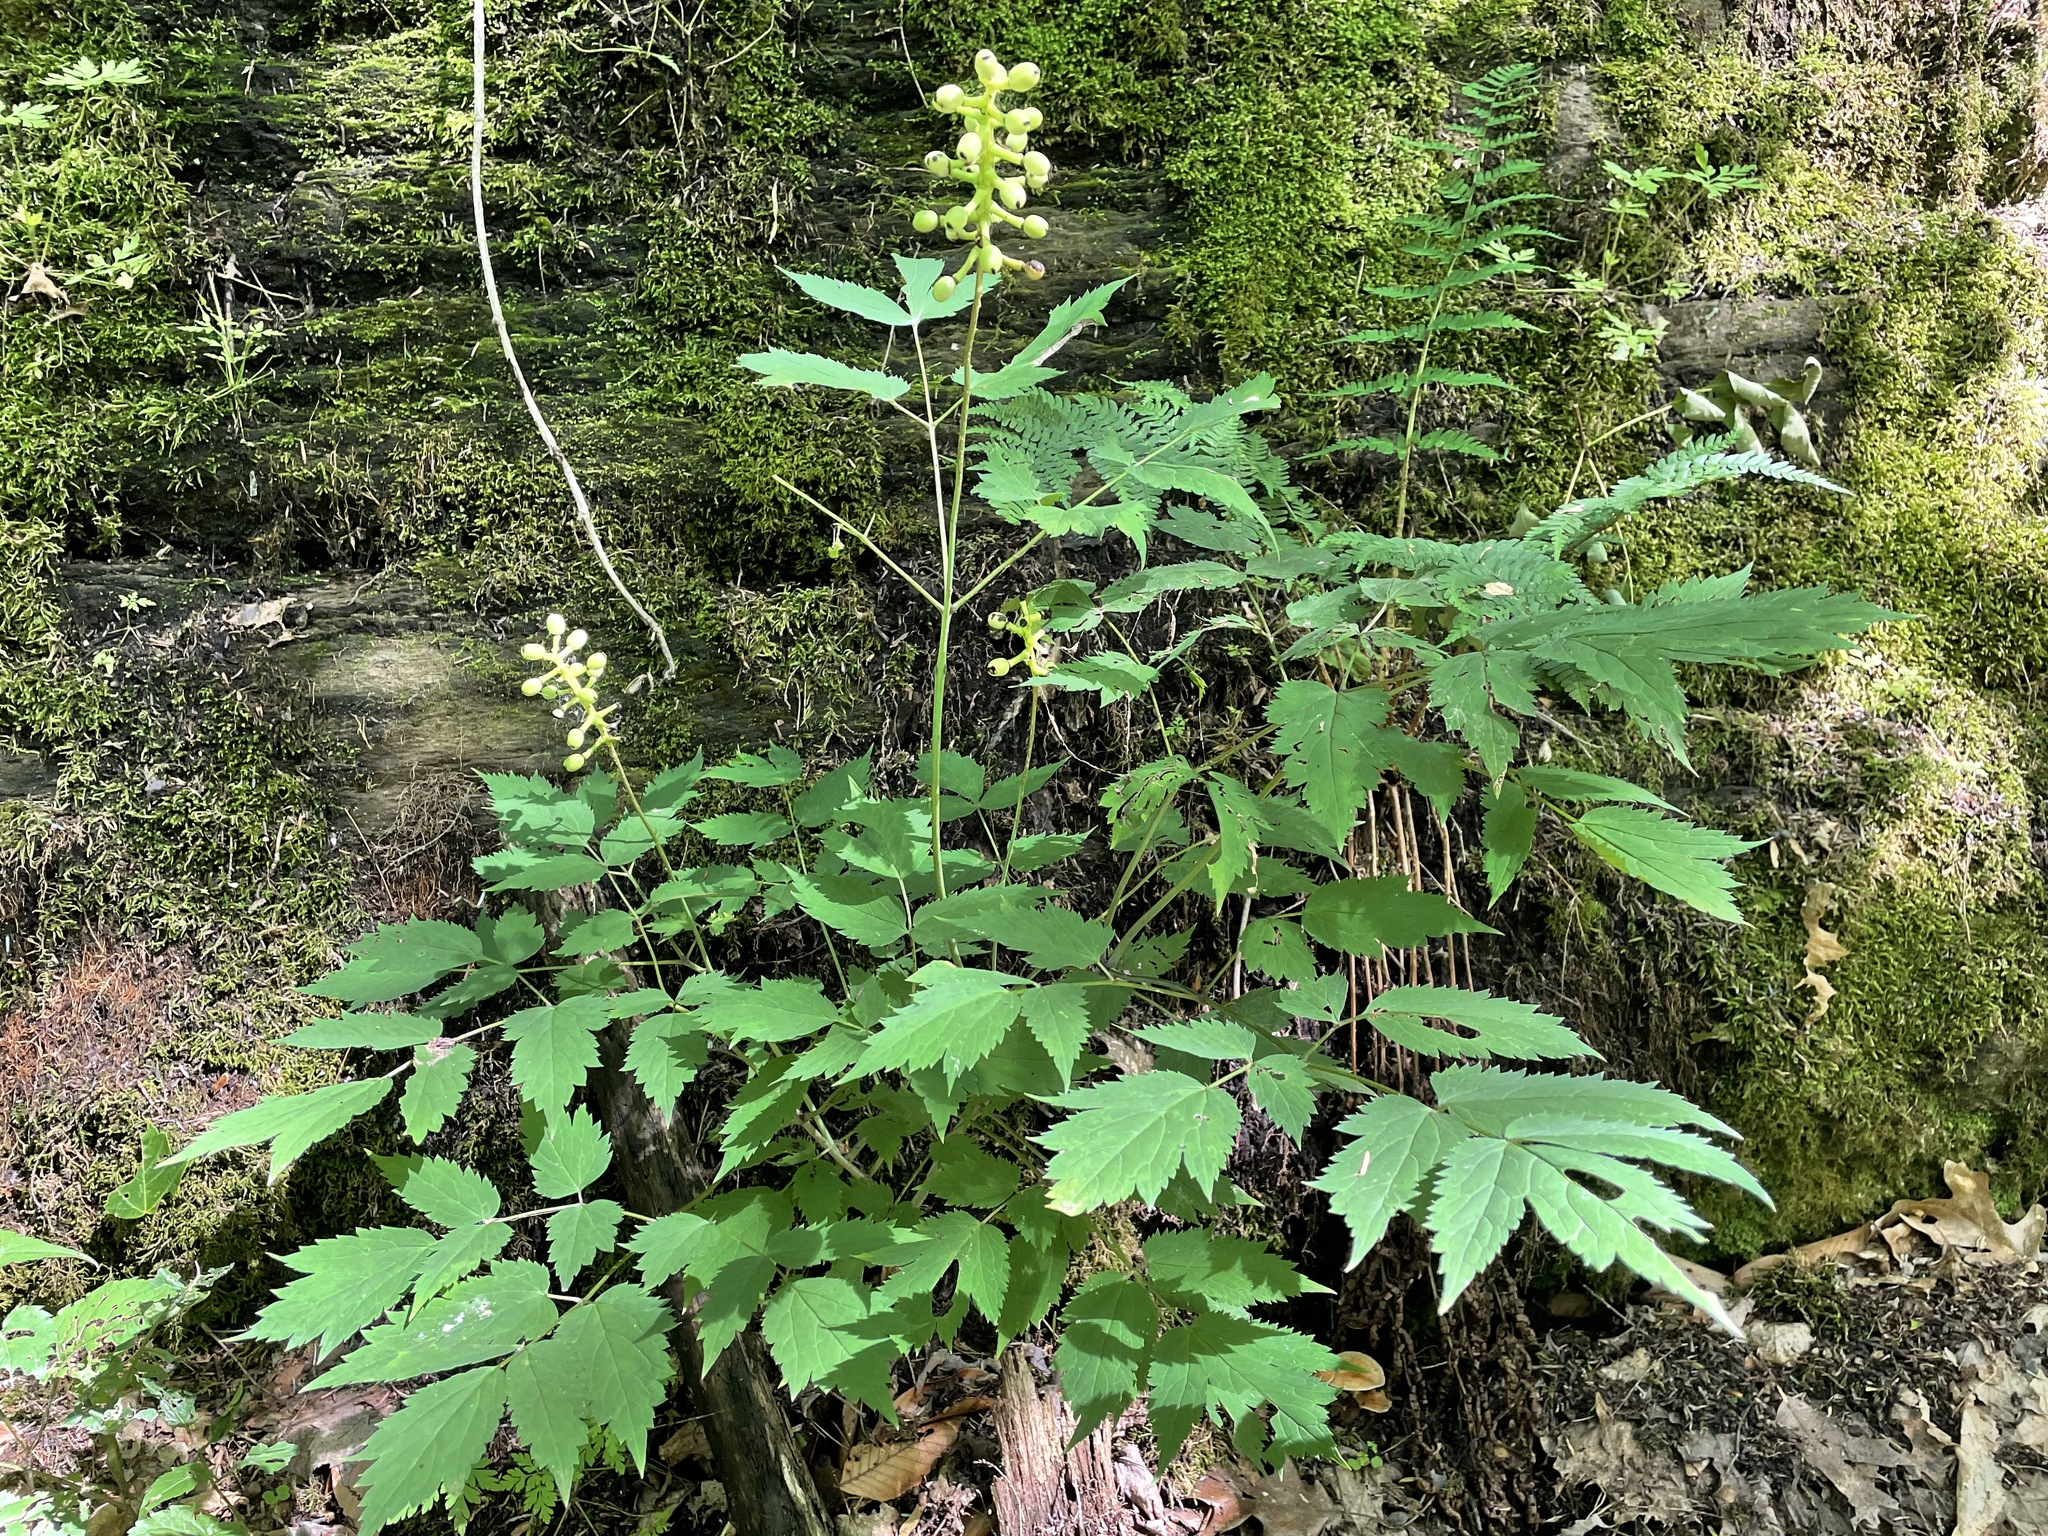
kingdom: Plantae
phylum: Tracheophyta
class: Magnoliopsida
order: Ranunculales
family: Ranunculaceae
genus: Actaea
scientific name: Actaea pachypoda
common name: Doll's-eyes
